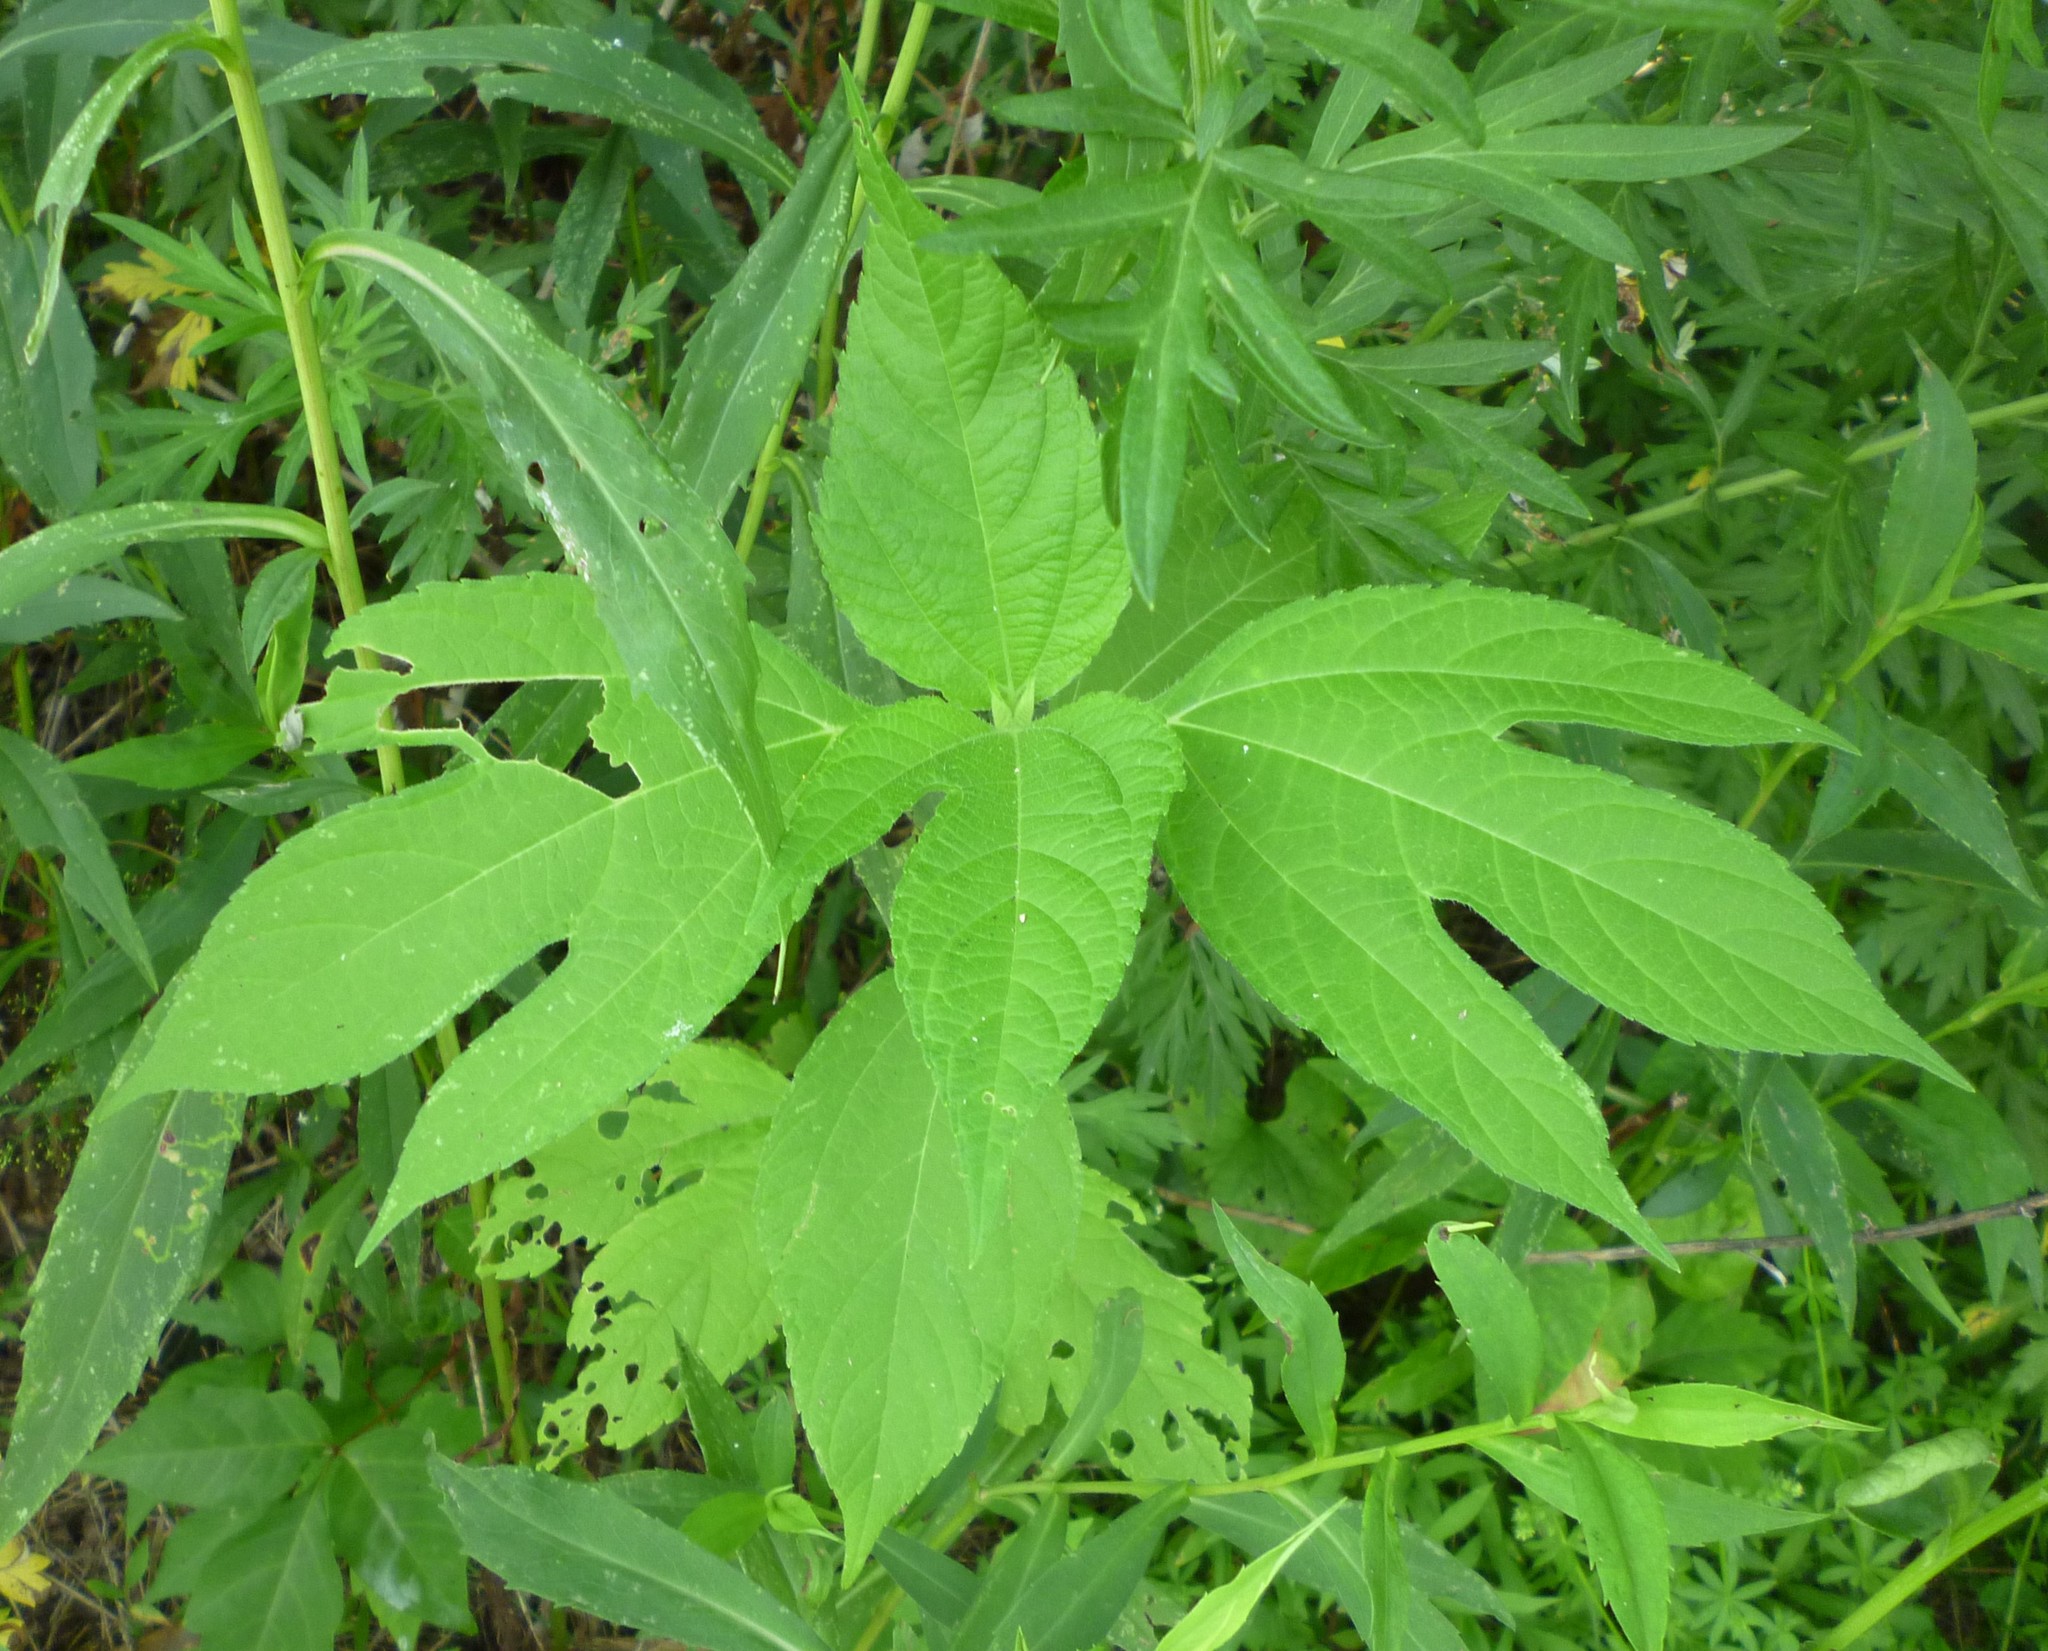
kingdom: Plantae
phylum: Tracheophyta
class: Magnoliopsida
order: Asterales
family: Asteraceae
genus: Ambrosia
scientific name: Ambrosia trifida
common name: Giant ragweed
